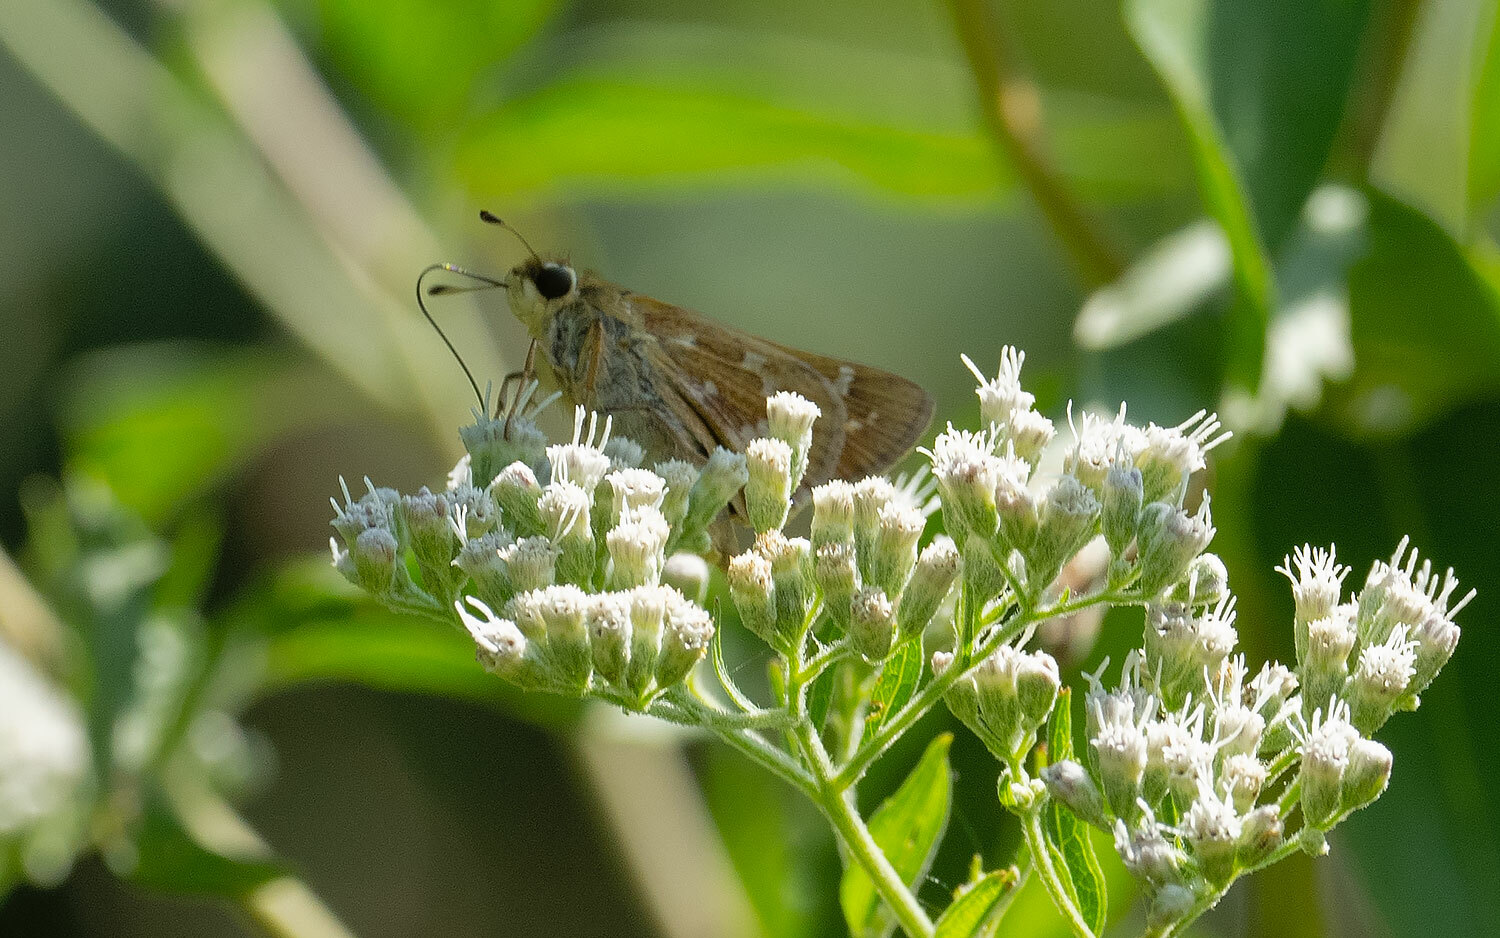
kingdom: Animalia
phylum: Arthropoda
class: Insecta
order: Lepidoptera
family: Hesperiidae
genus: Atalopedes
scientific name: Atalopedes
